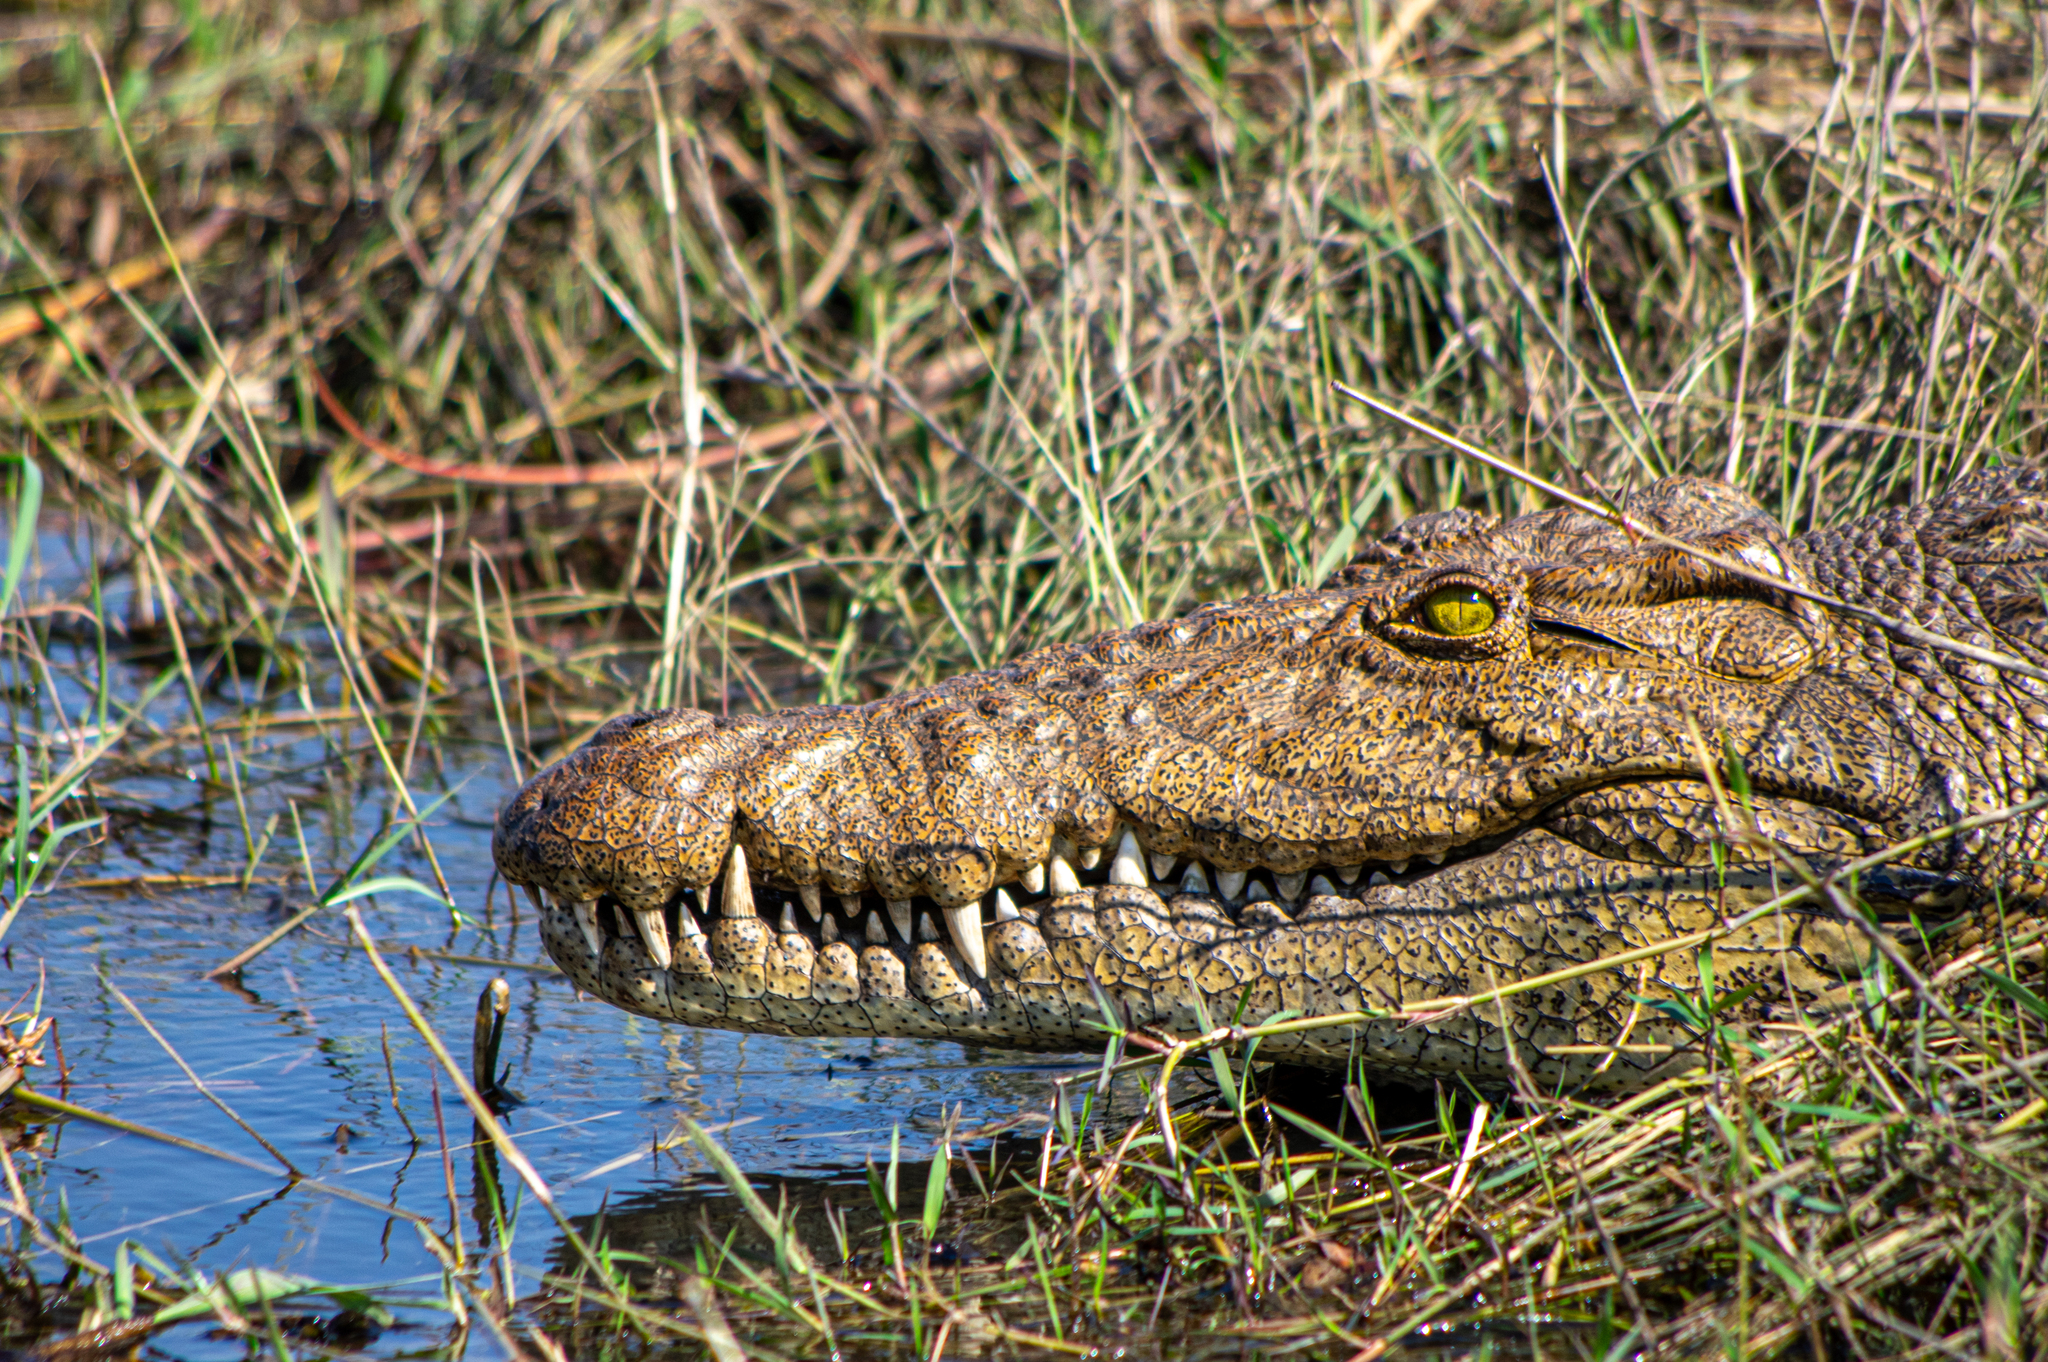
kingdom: Animalia
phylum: Chordata
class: Crocodylia
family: Crocodylidae
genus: Crocodylus
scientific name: Crocodylus niloticus
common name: Nile crocodile
